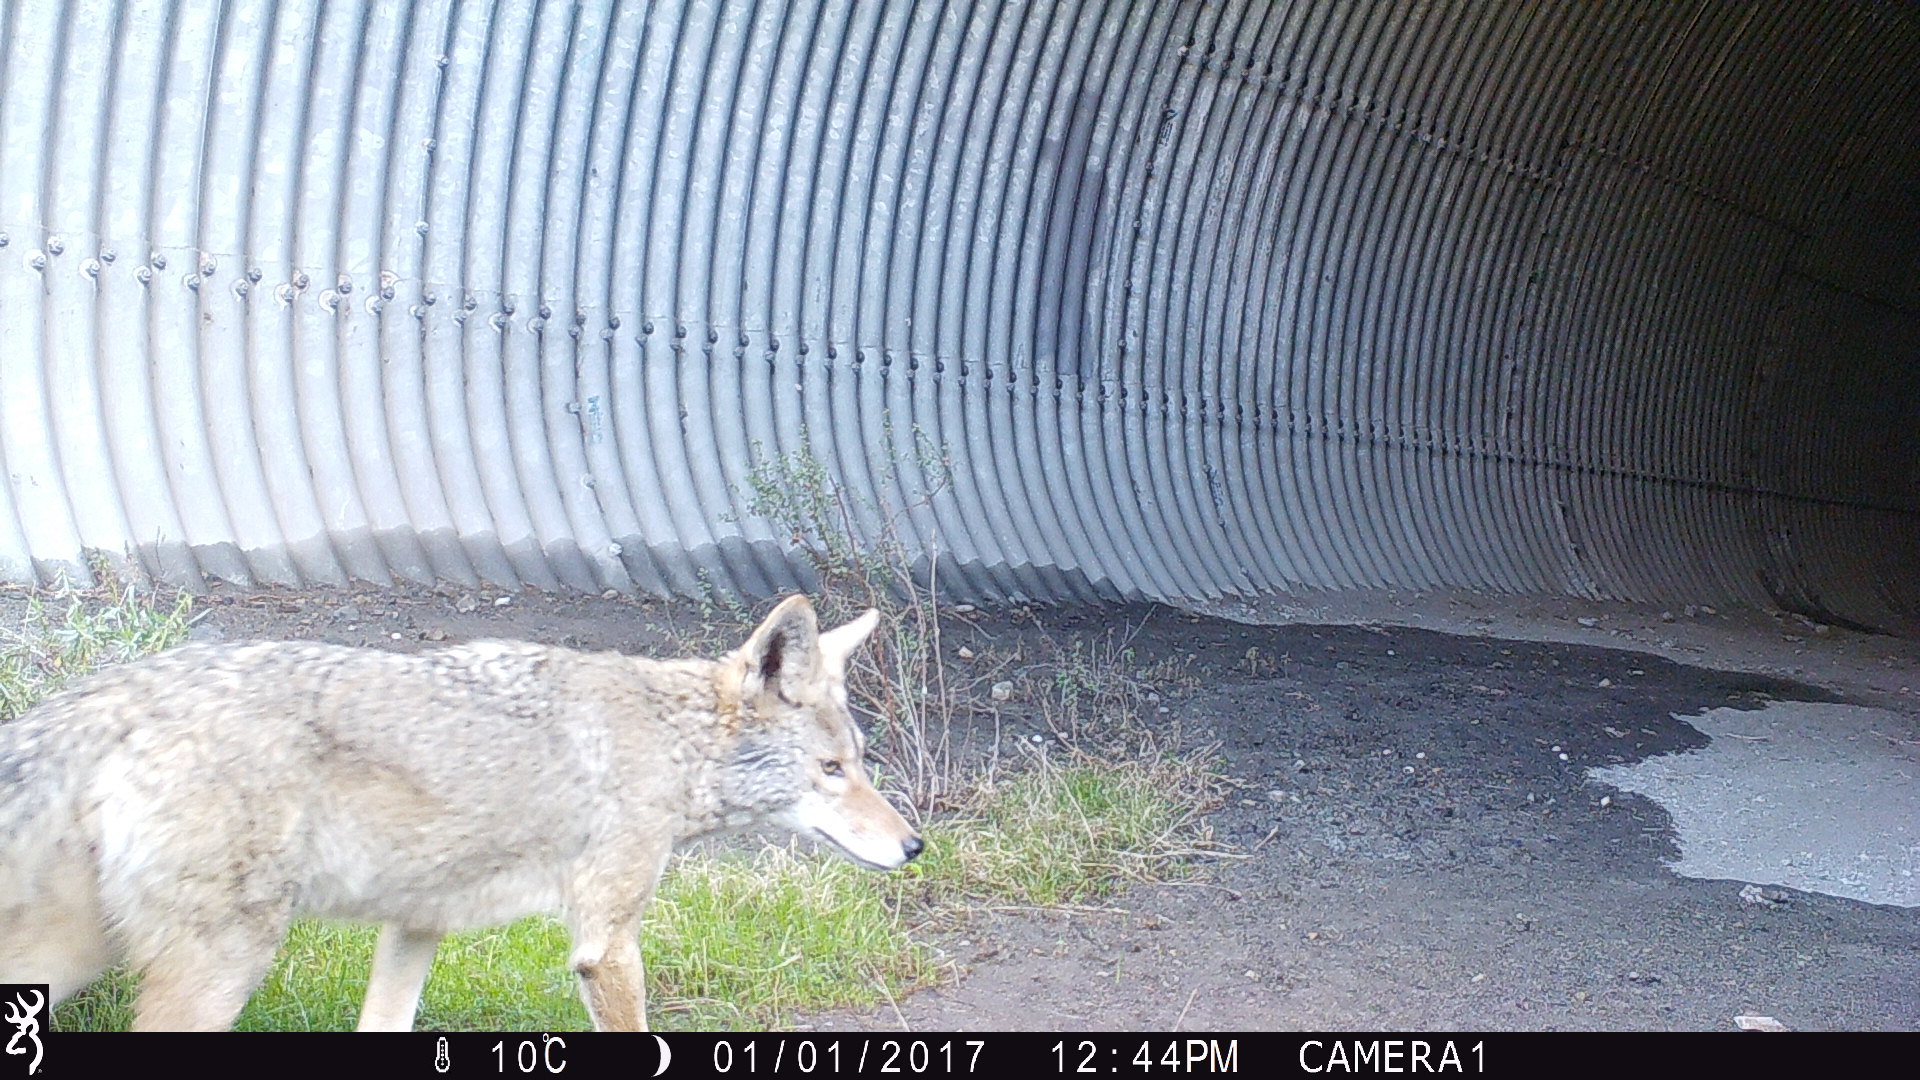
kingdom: Animalia
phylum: Chordata
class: Mammalia
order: Carnivora
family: Canidae
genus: Canis
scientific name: Canis latrans
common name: Coyote
